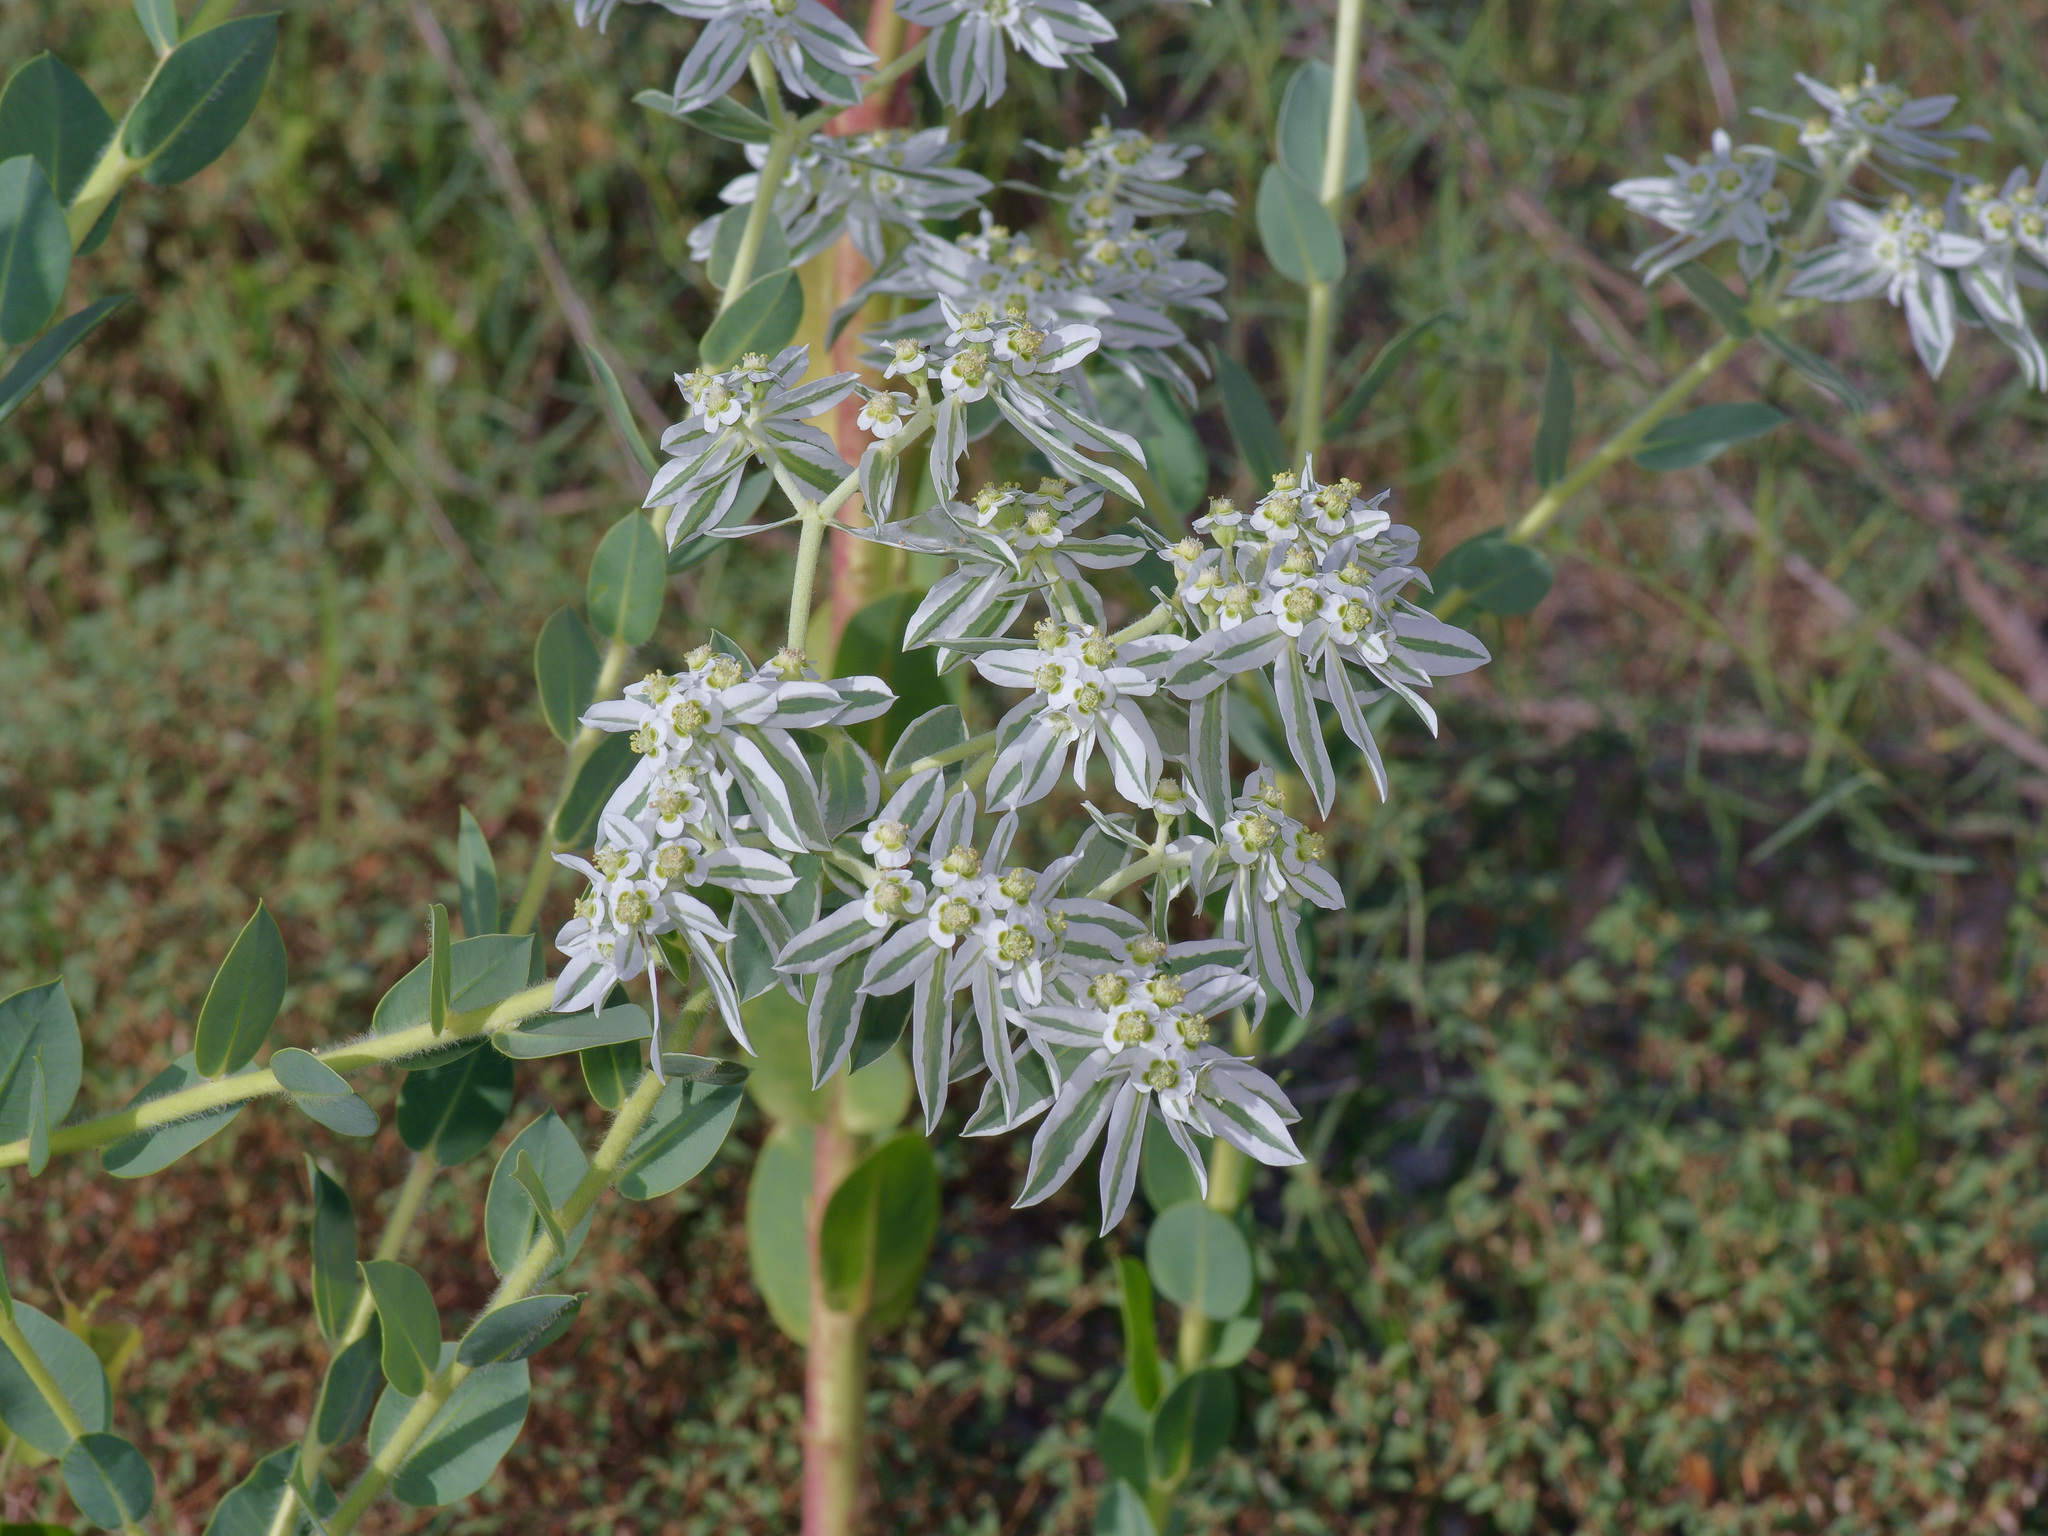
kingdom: Plantae
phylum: Tracheophyta
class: Magnoliopsida
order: Malpighiales
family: Euphorbiaceae
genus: Euphorbia
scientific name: Euphorbia marginata
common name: Ghostweed
